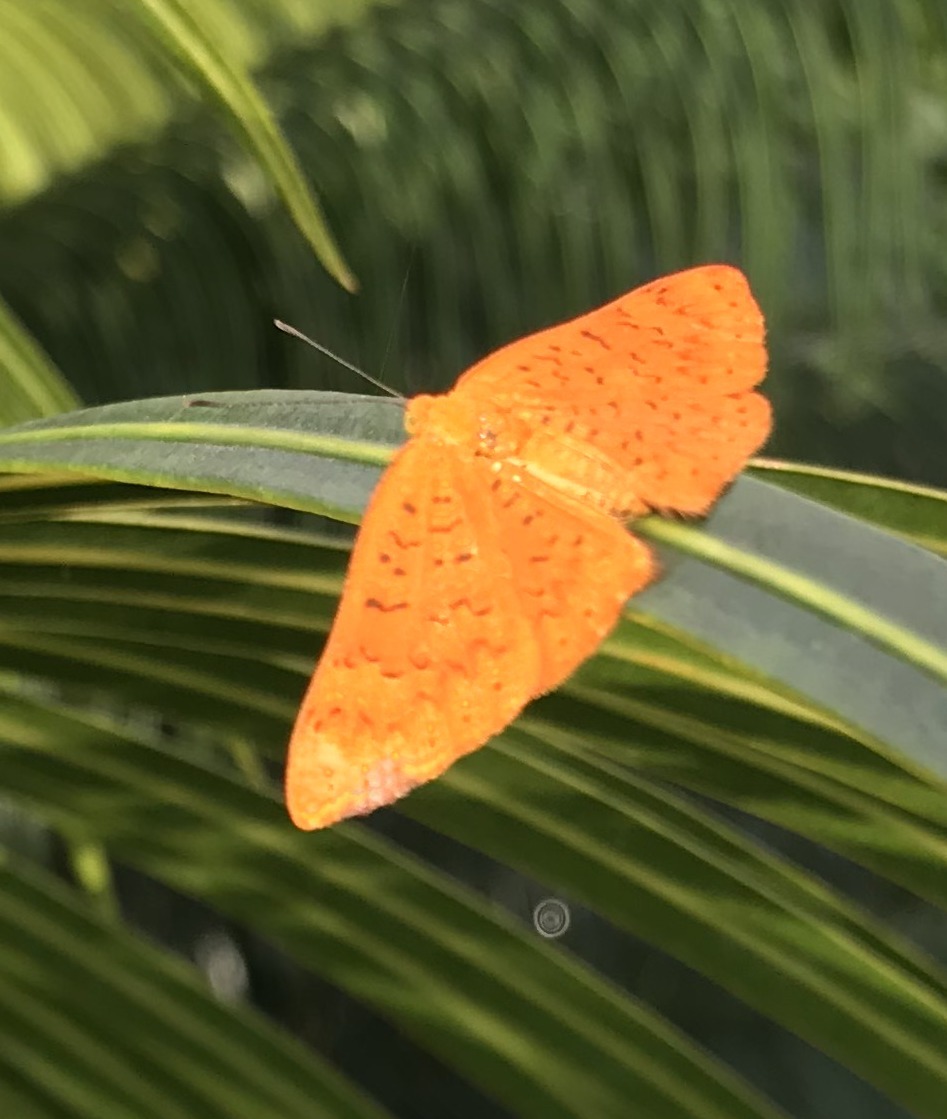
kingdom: Animalia
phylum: Arthropoda
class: Insecta
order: Lepidoptera
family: Lycaenidae
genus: Emesis
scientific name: Emesis fatima
